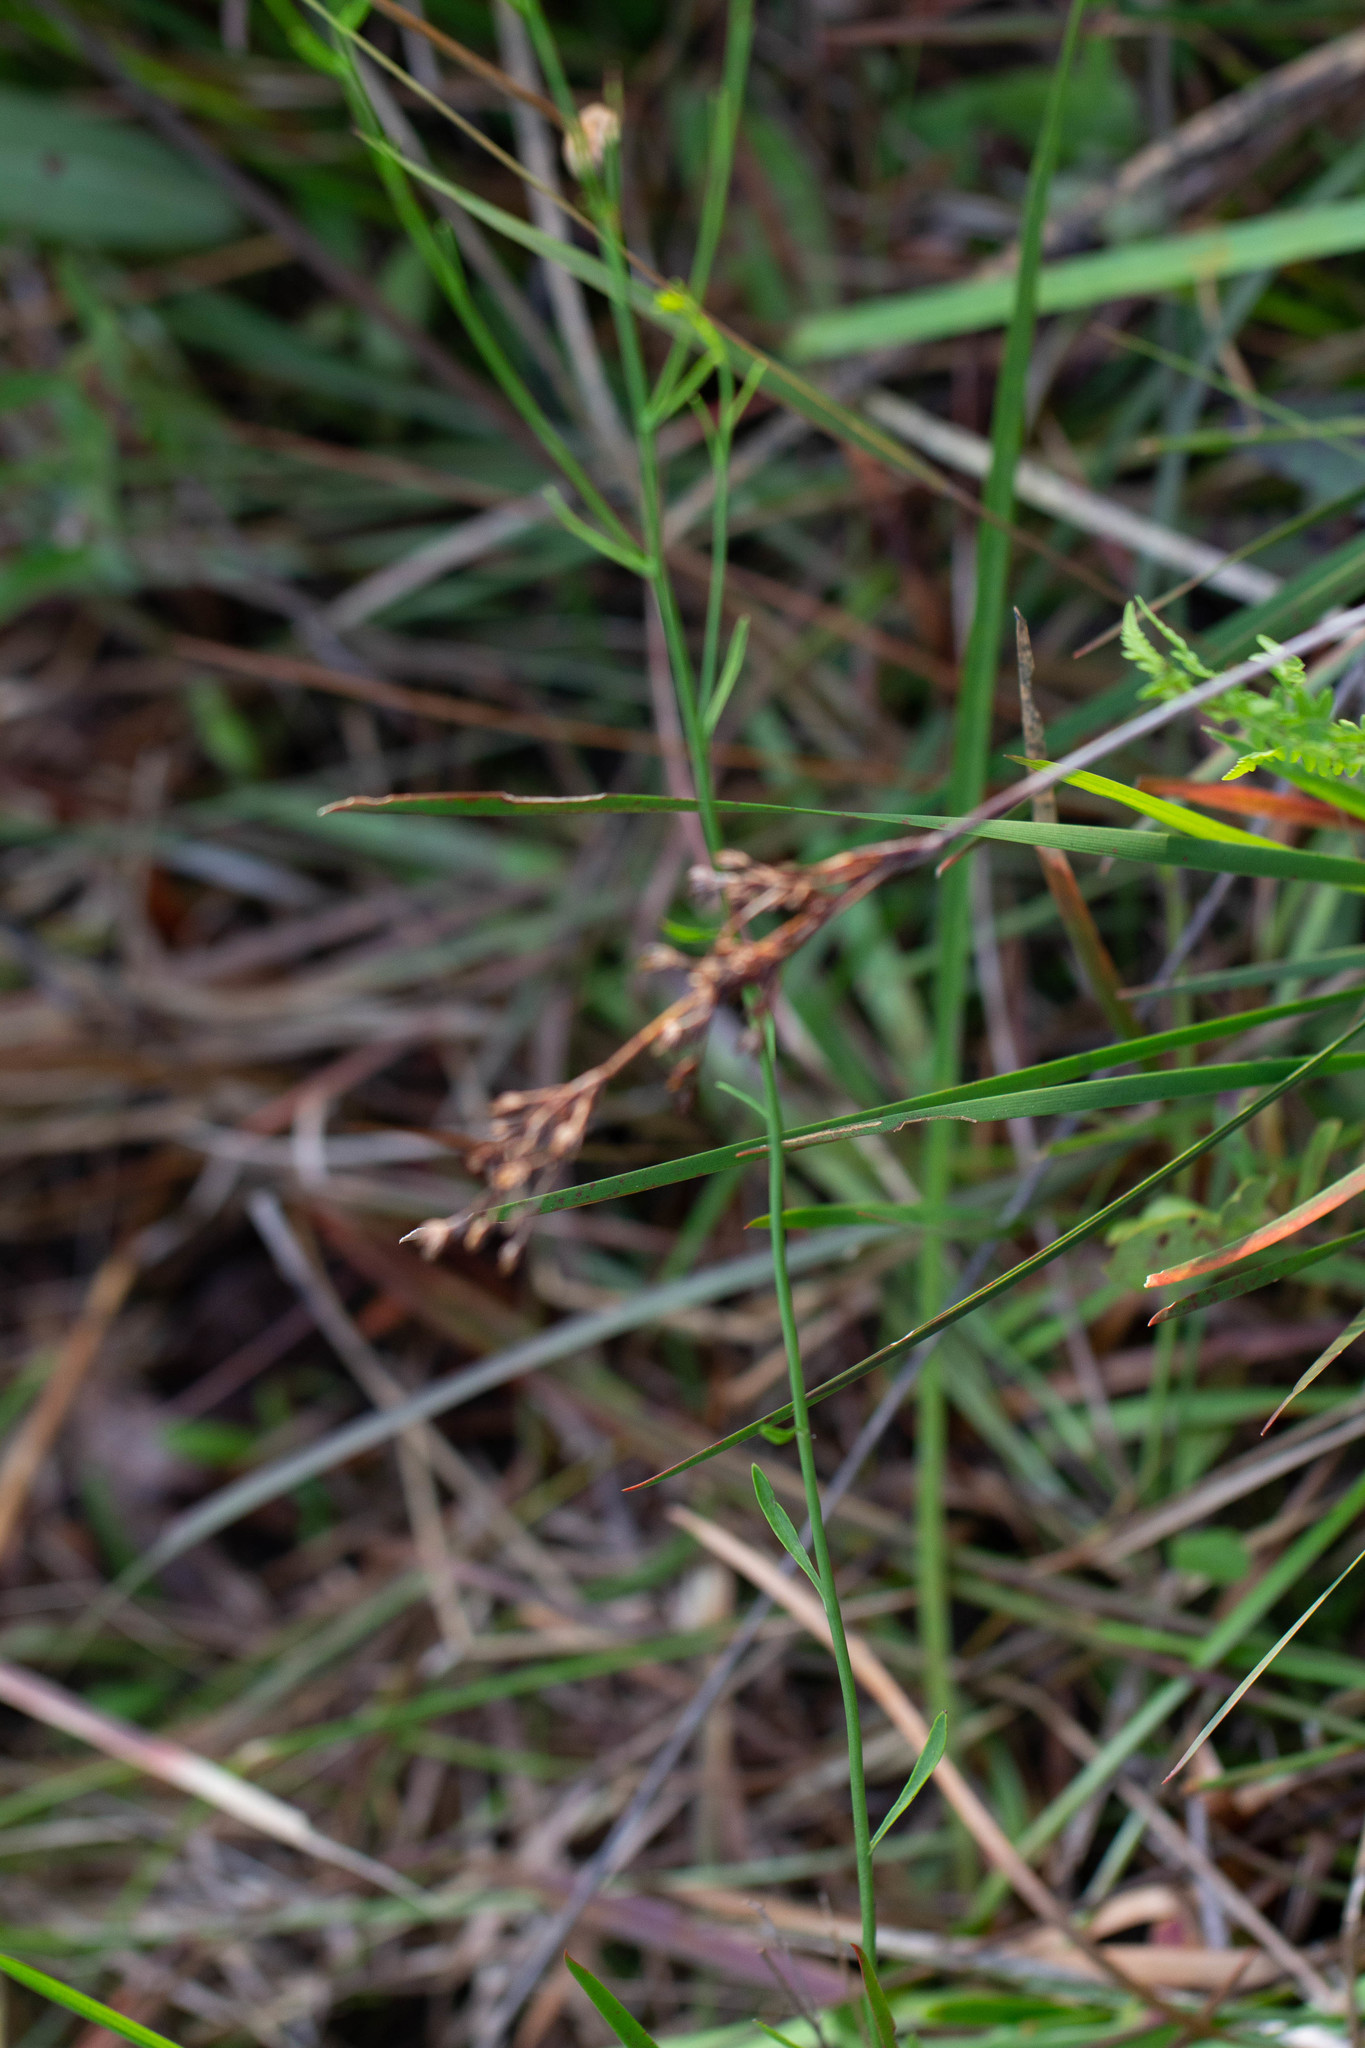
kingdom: Plantae
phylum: Tracheophyta
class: Magnoliopsida
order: Asterales
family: Asteraceae
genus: Bigelowia
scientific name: Bigelowia nudata
